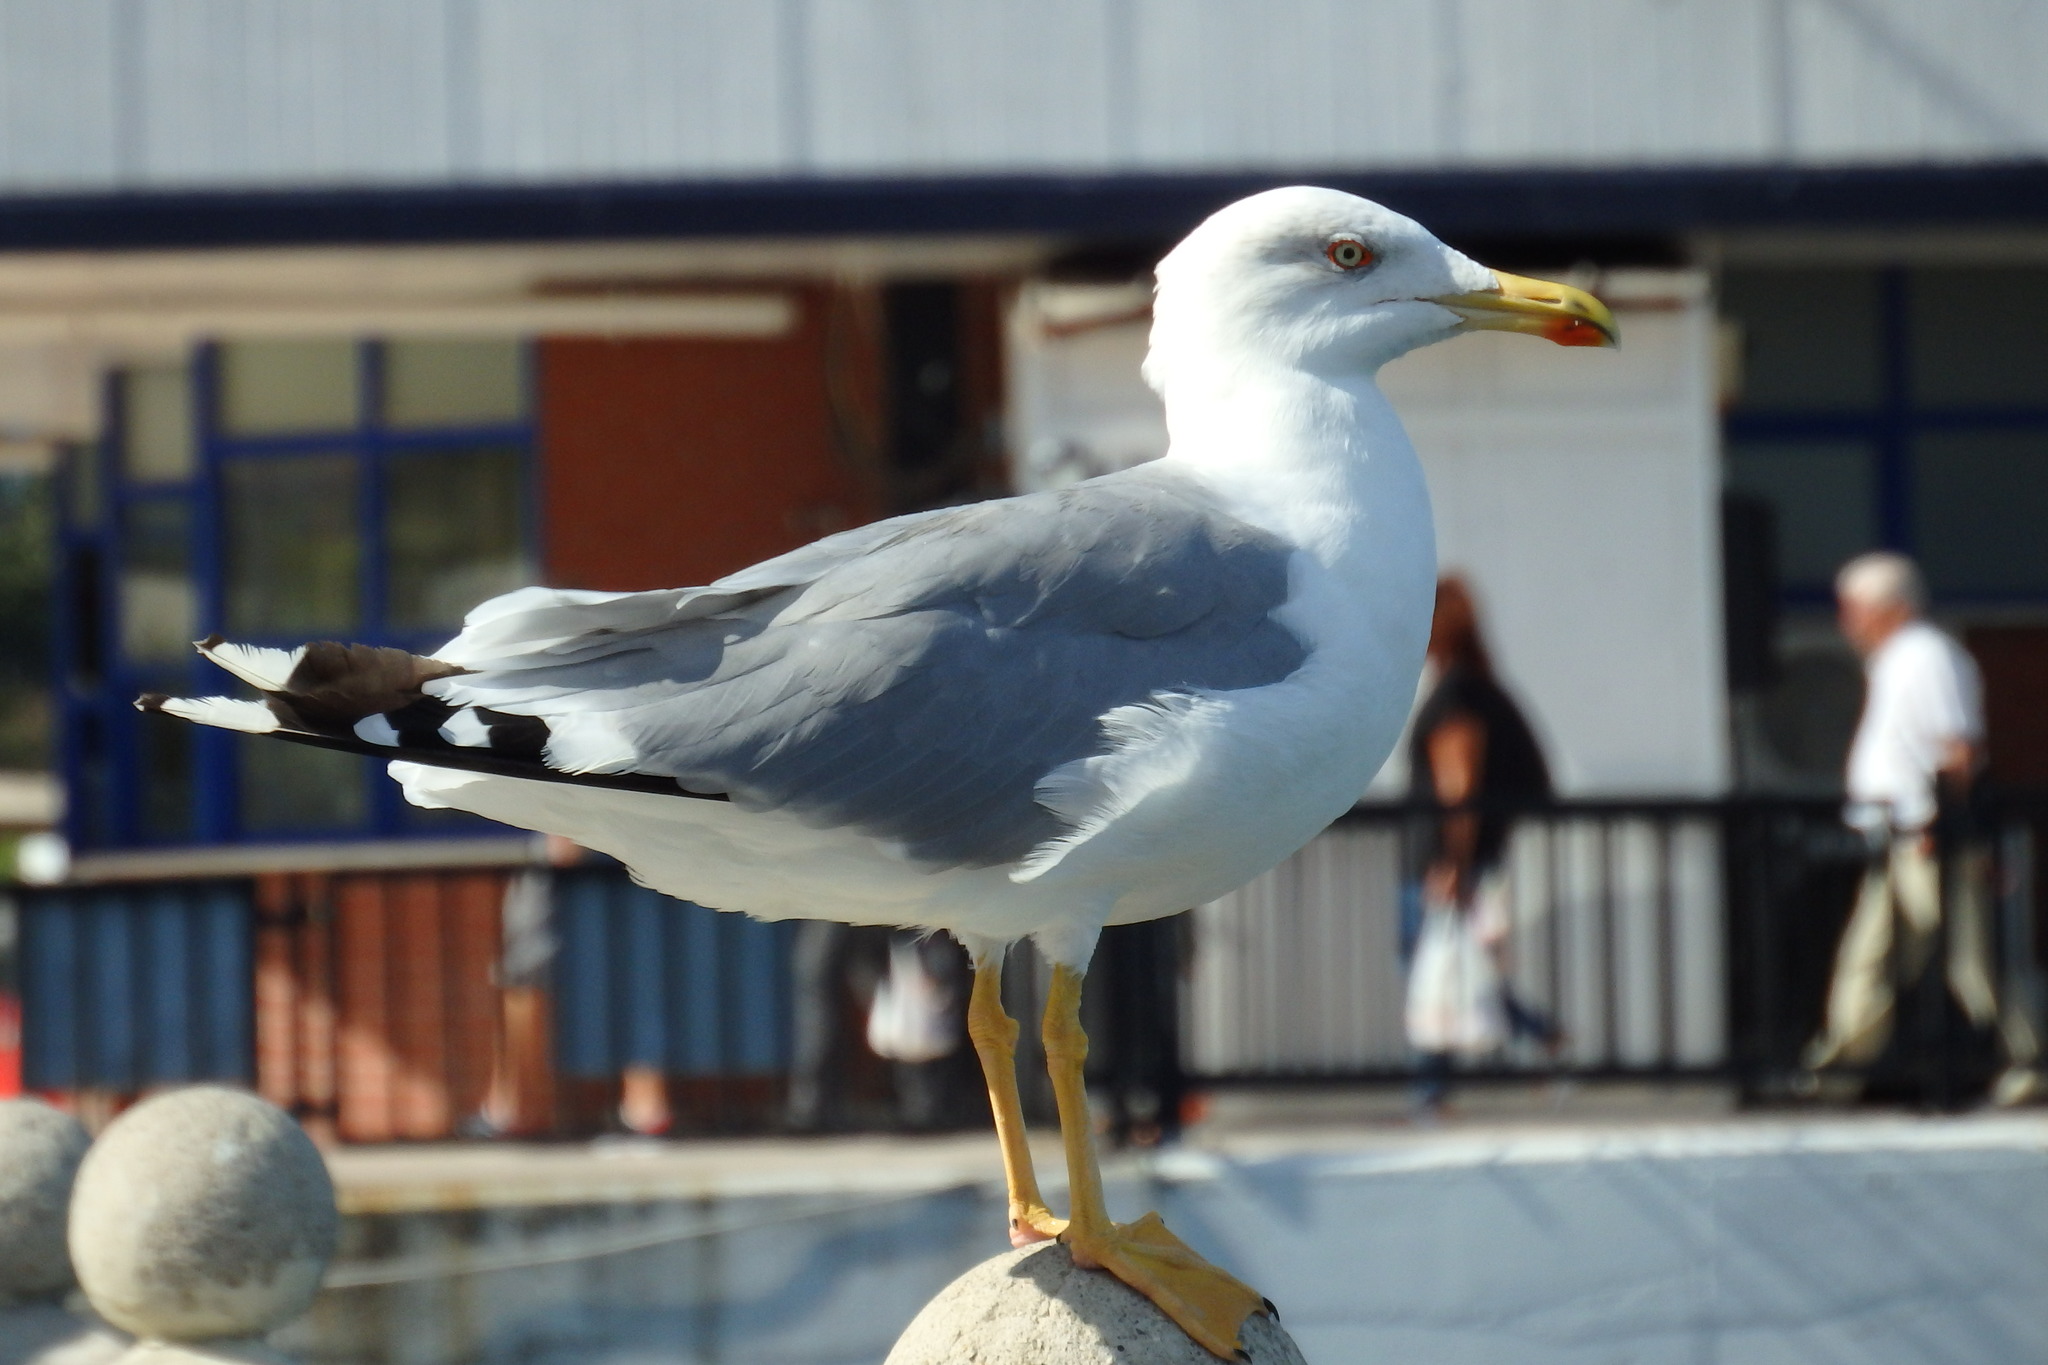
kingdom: Animalia
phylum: Chordata
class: Aves
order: Charadriiformes
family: Laridae
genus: Larus
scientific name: Larus michahellis
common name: Yellow-legged gull
